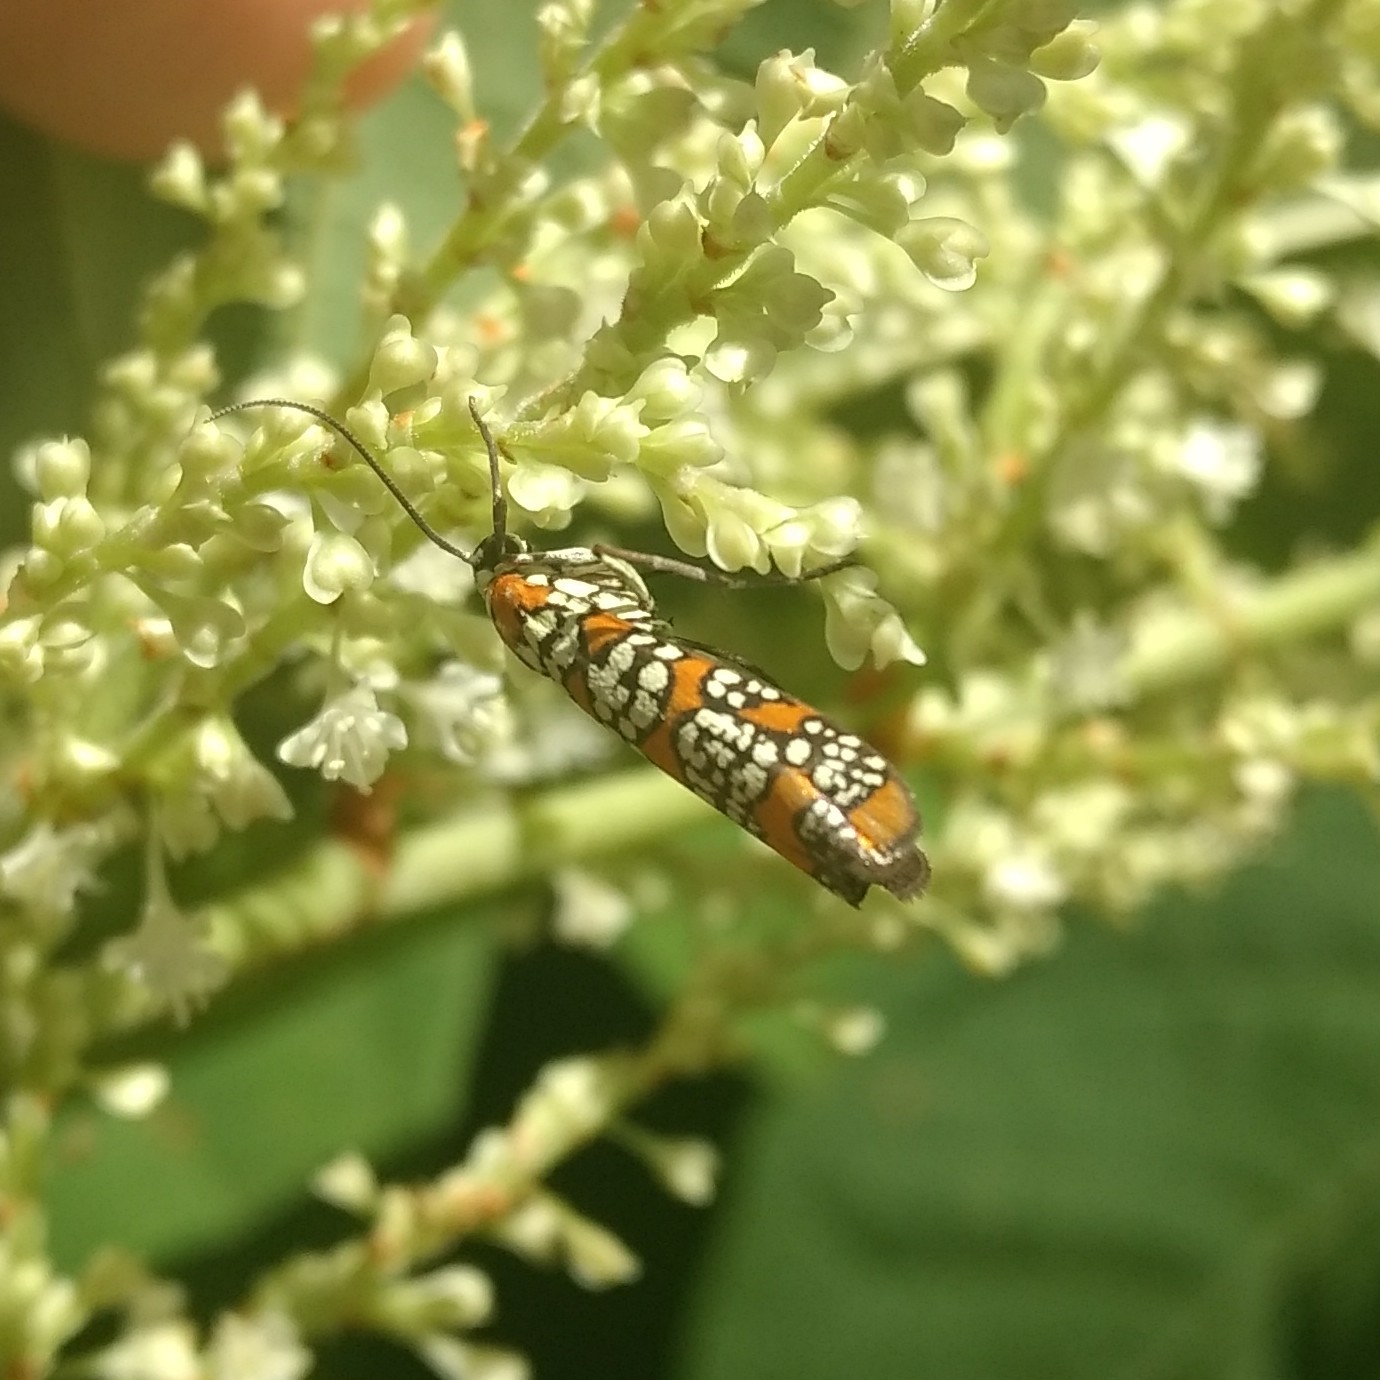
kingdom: Animalia
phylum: Arthropoda
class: Insecta
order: Lepidoptera
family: Attevidae
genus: Atteva
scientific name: Atteva punctella
